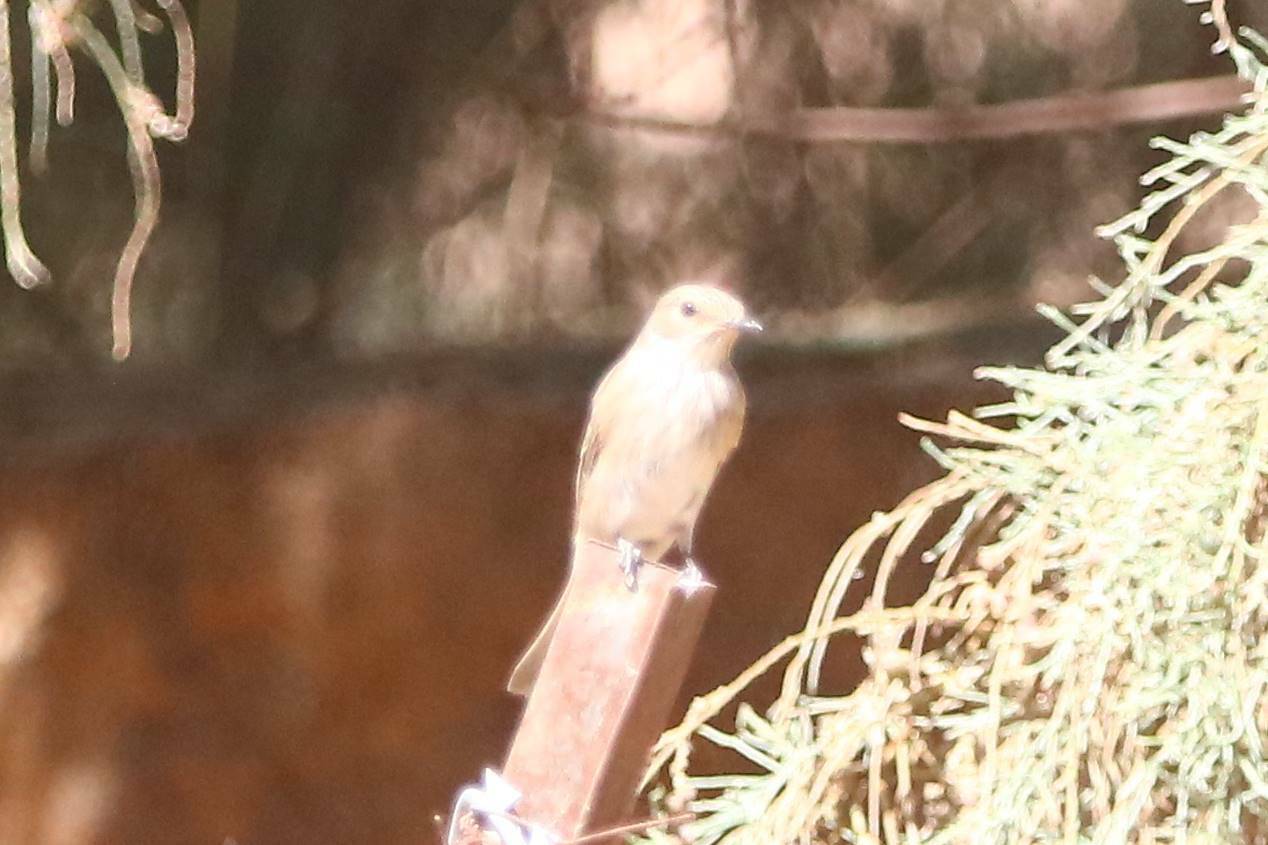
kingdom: Animalia
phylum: Chordata
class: Aves
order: Passeriformes
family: Muscicapidae
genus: Muscicapa
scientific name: Muscicapa striata
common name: Spotted flycatcher
